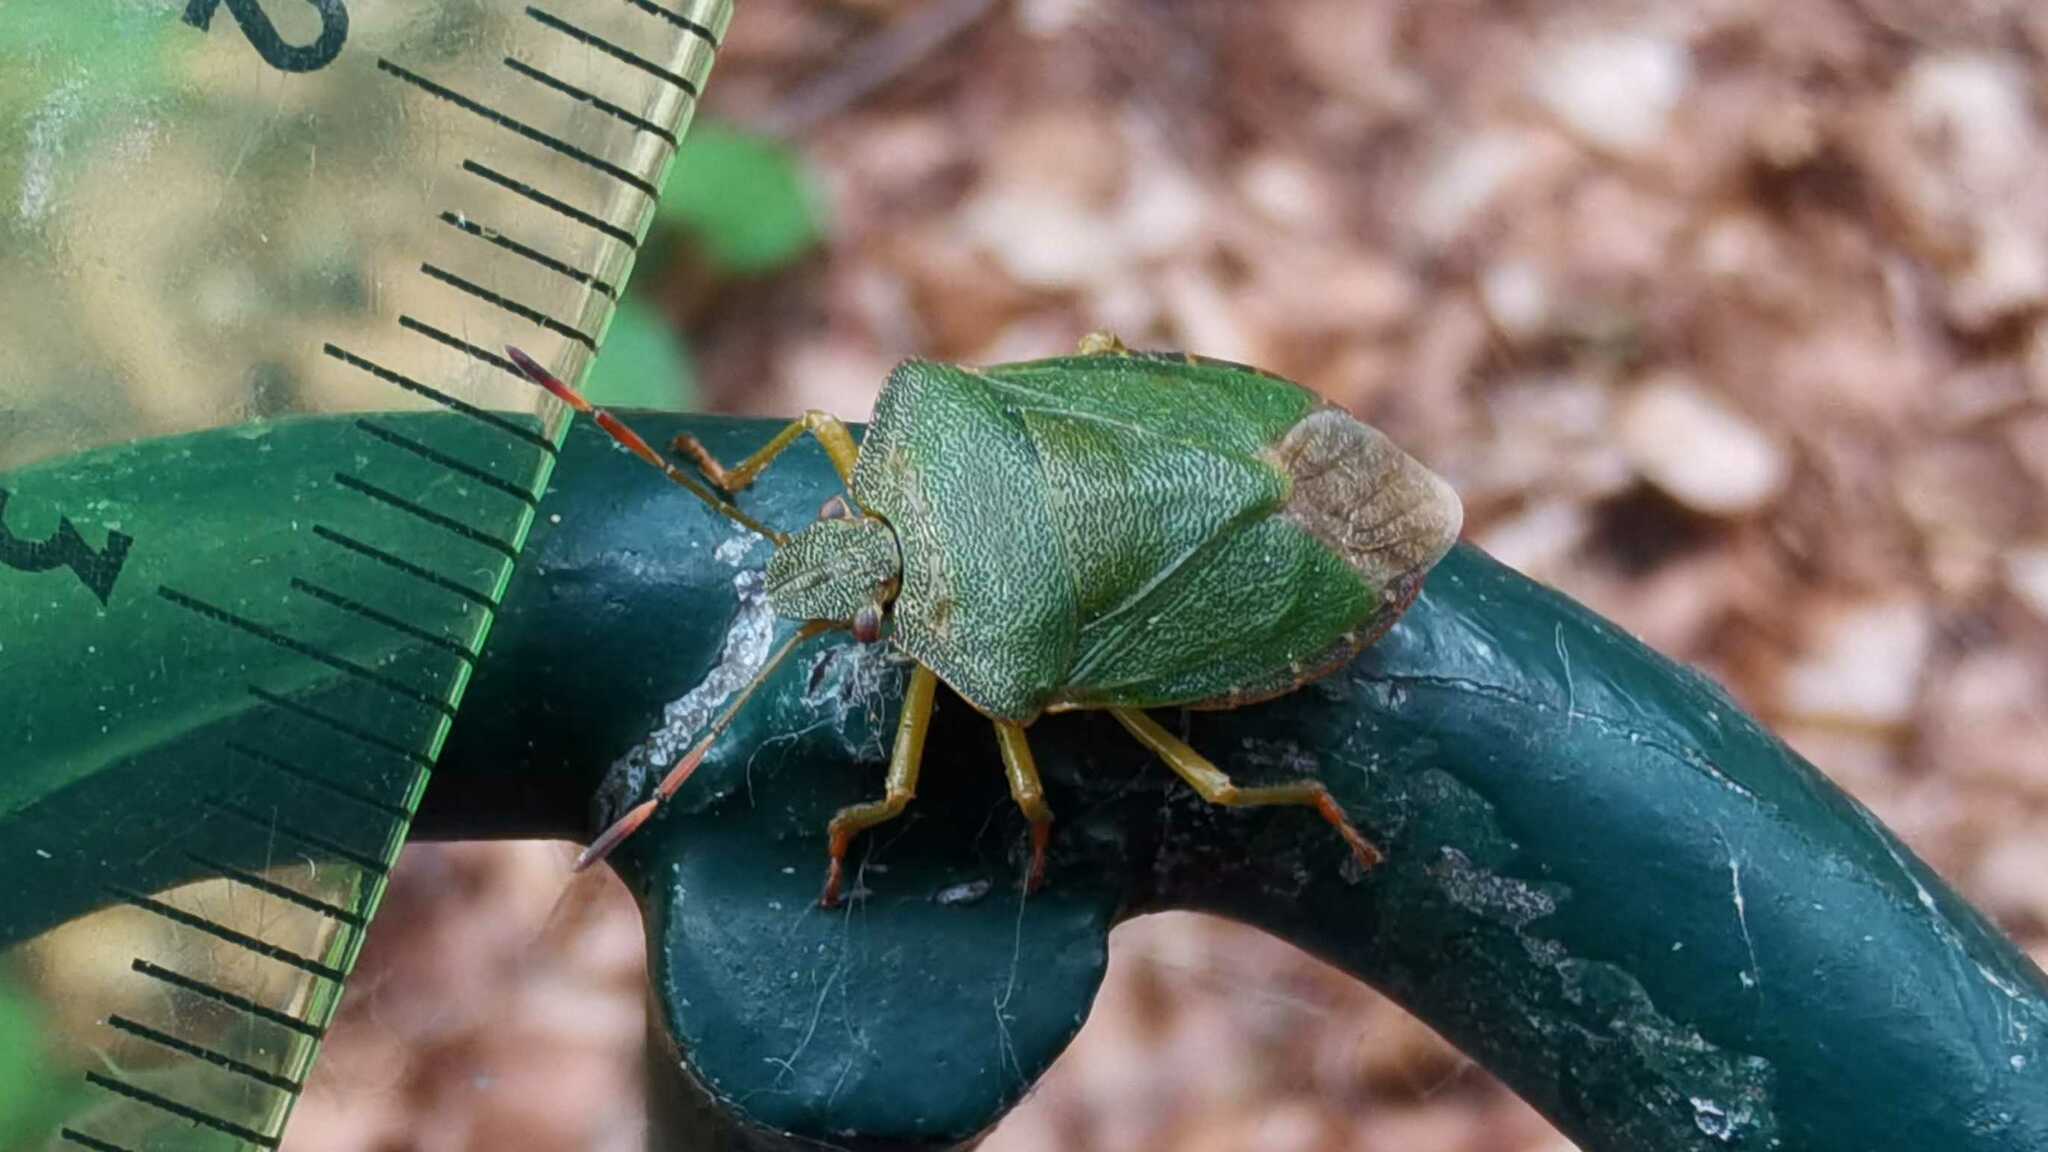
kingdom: Animalia
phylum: Arthropoda
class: Insecta
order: Hemiptera
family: Pentatomidae
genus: Palomena
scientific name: Palomena prasina
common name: Green shieldbug
